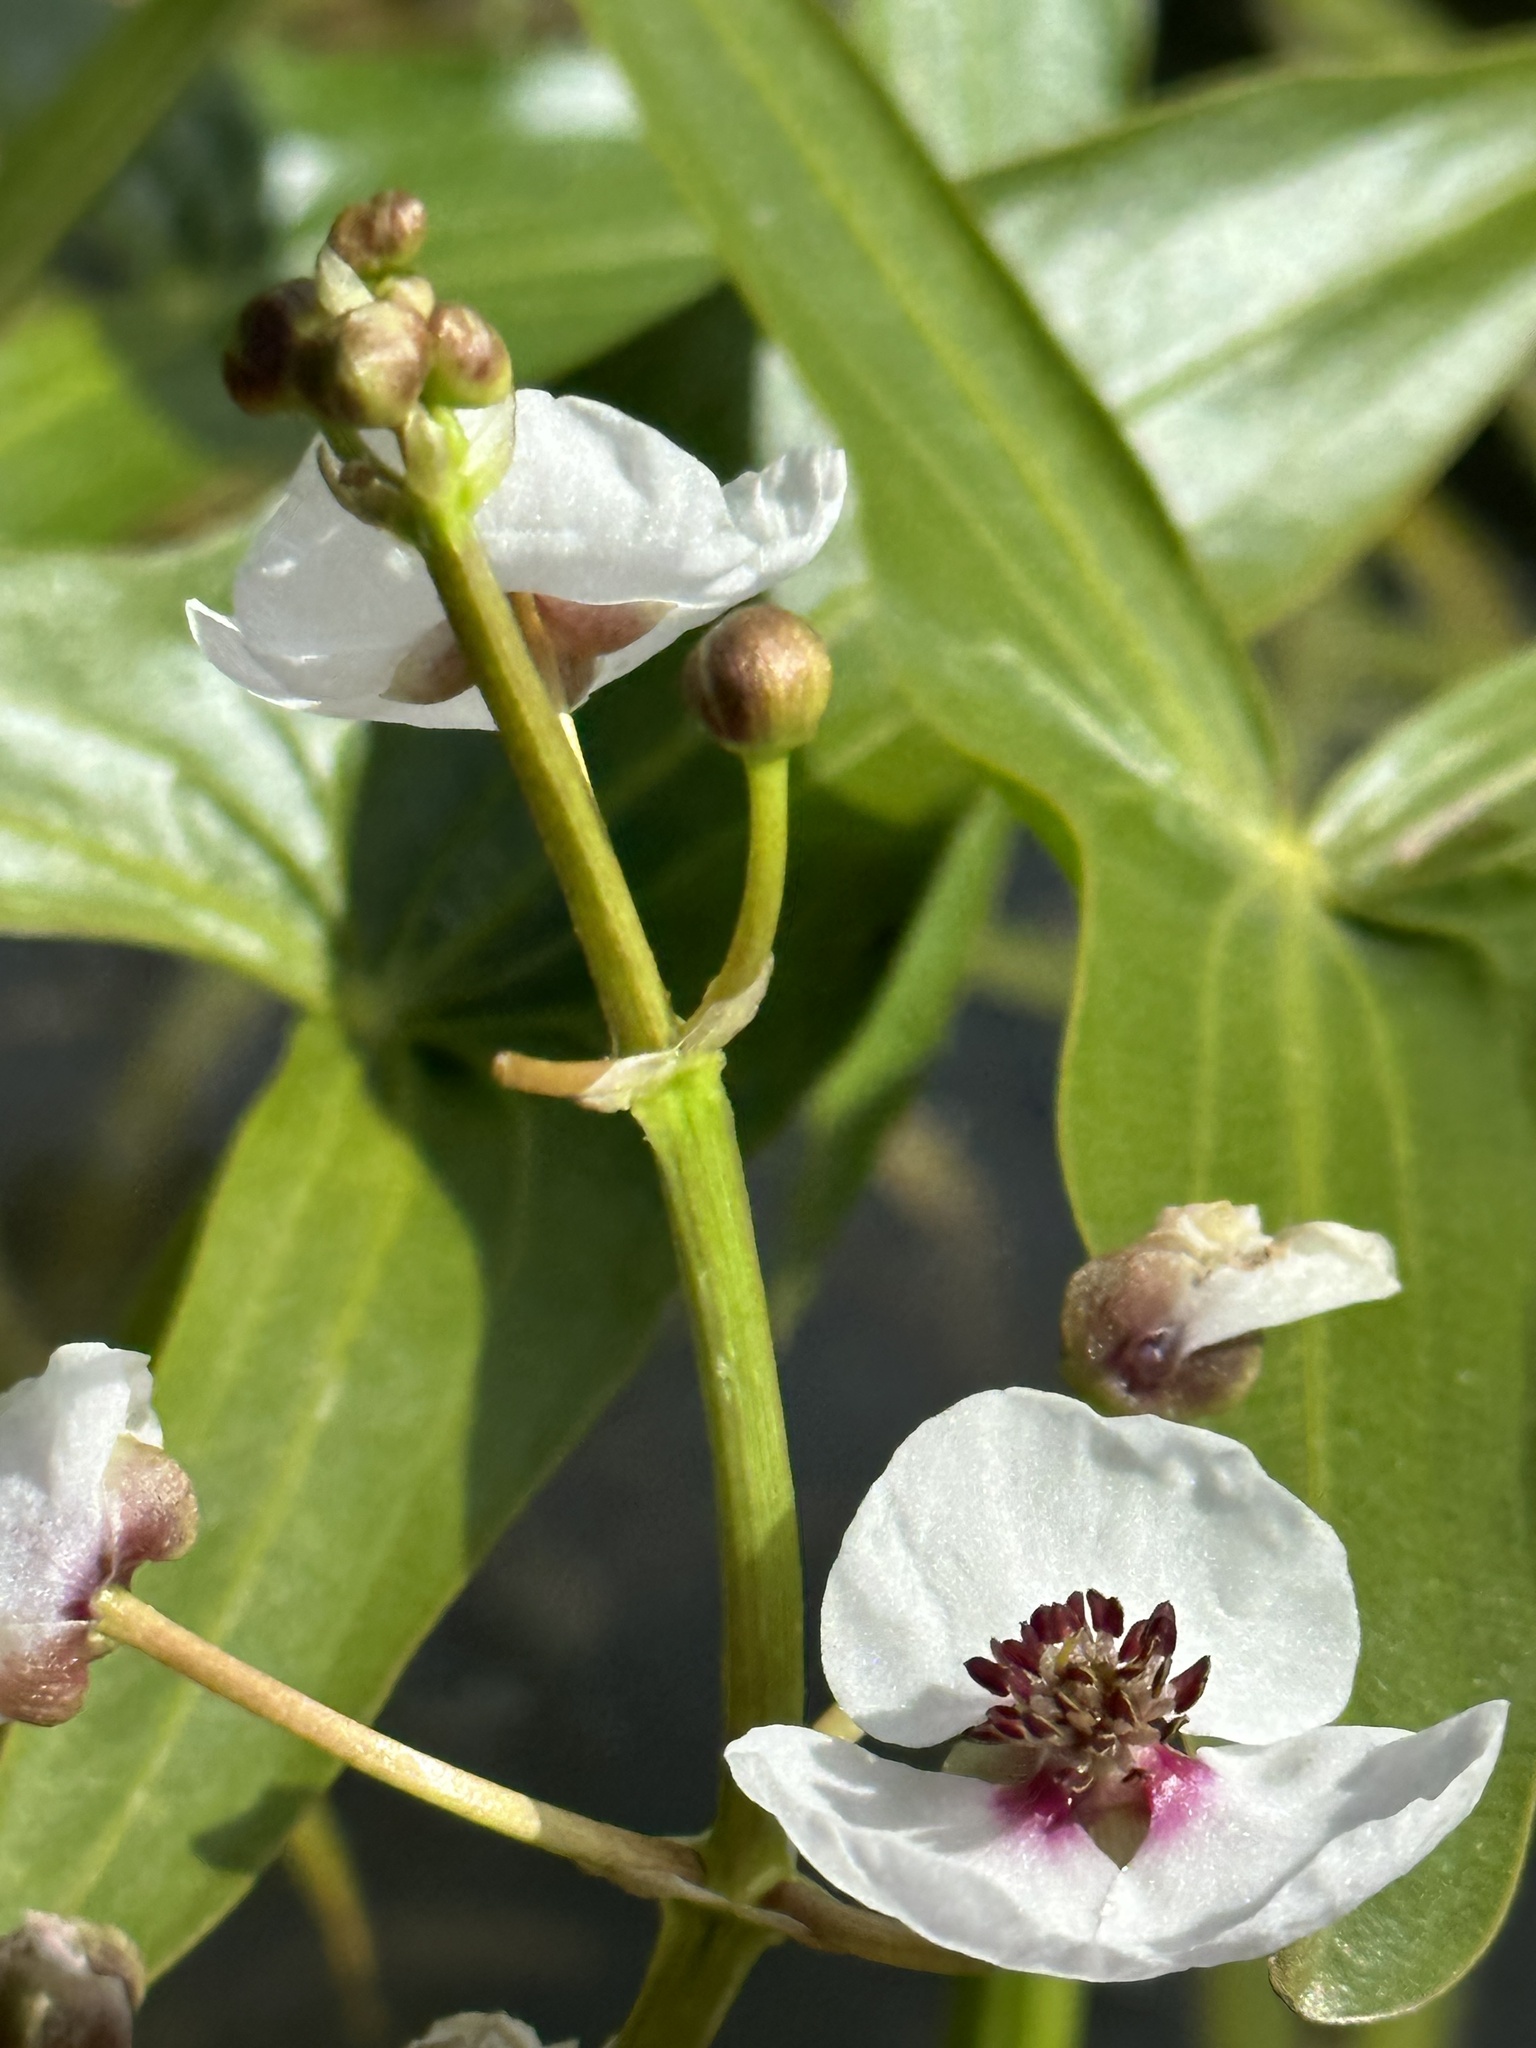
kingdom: Plantae
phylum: Tracheophyta
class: Liliopsida
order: Alismatales
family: Alismataceae
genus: Sagittaria
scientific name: Sagittaria sagittifolia
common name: Arrowhead
